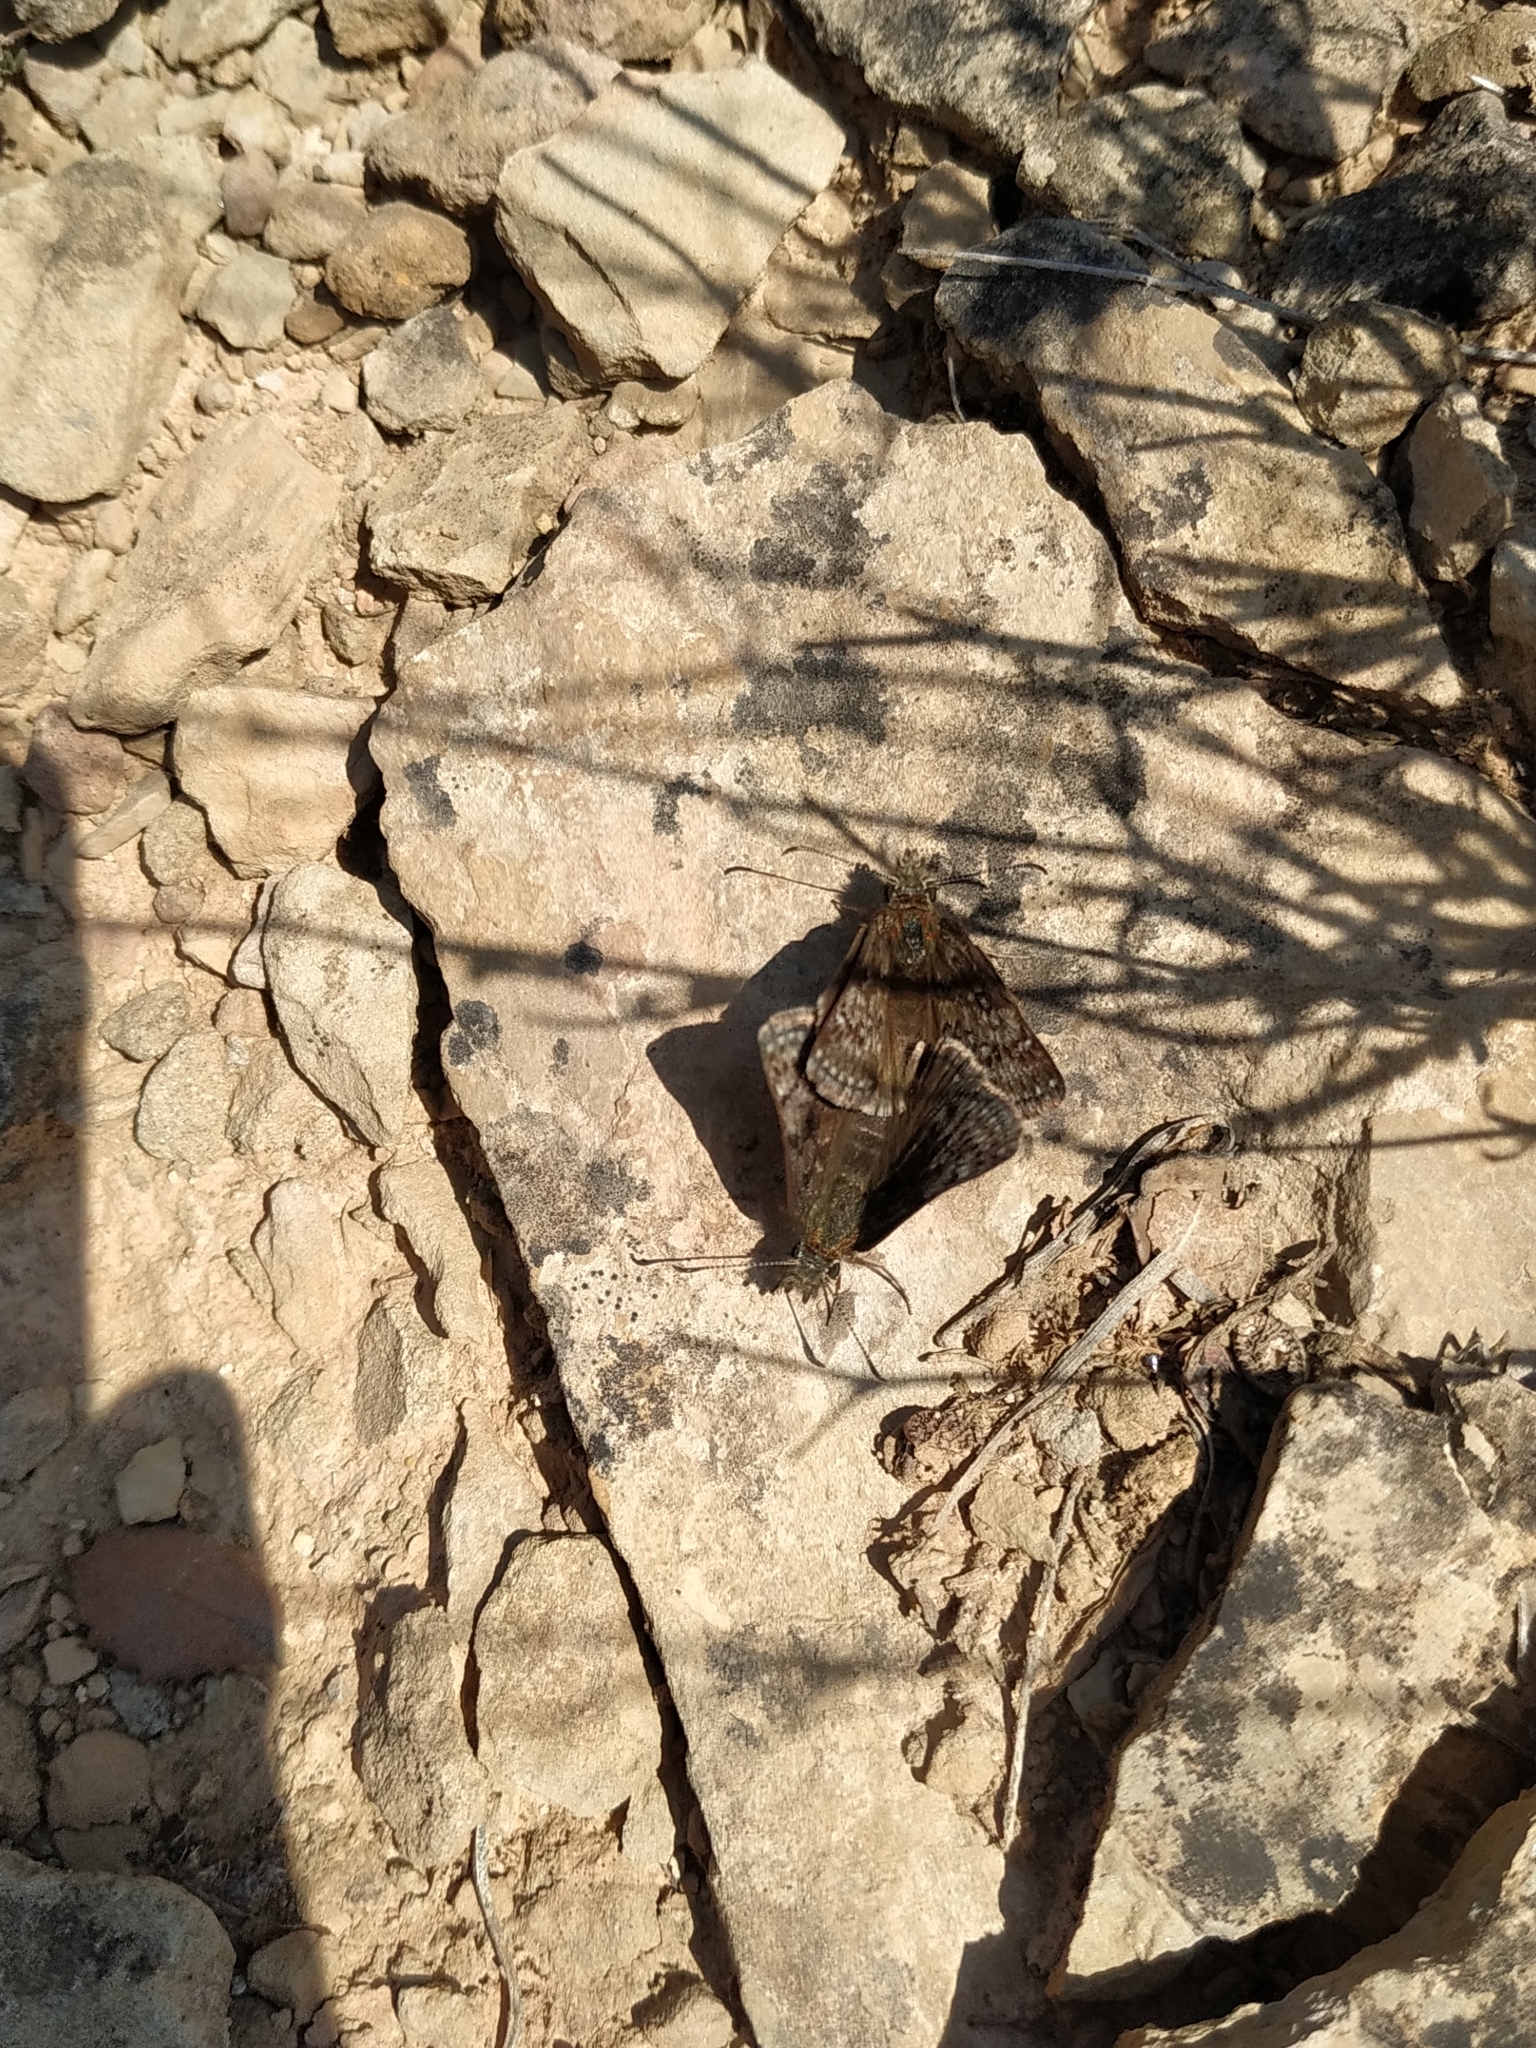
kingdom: Animalia
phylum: Arthropoda
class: Insecta
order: Lepidoptera
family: Hesperiidae
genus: Erynnis
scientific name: Erynnis tages
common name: Dingy skipper
